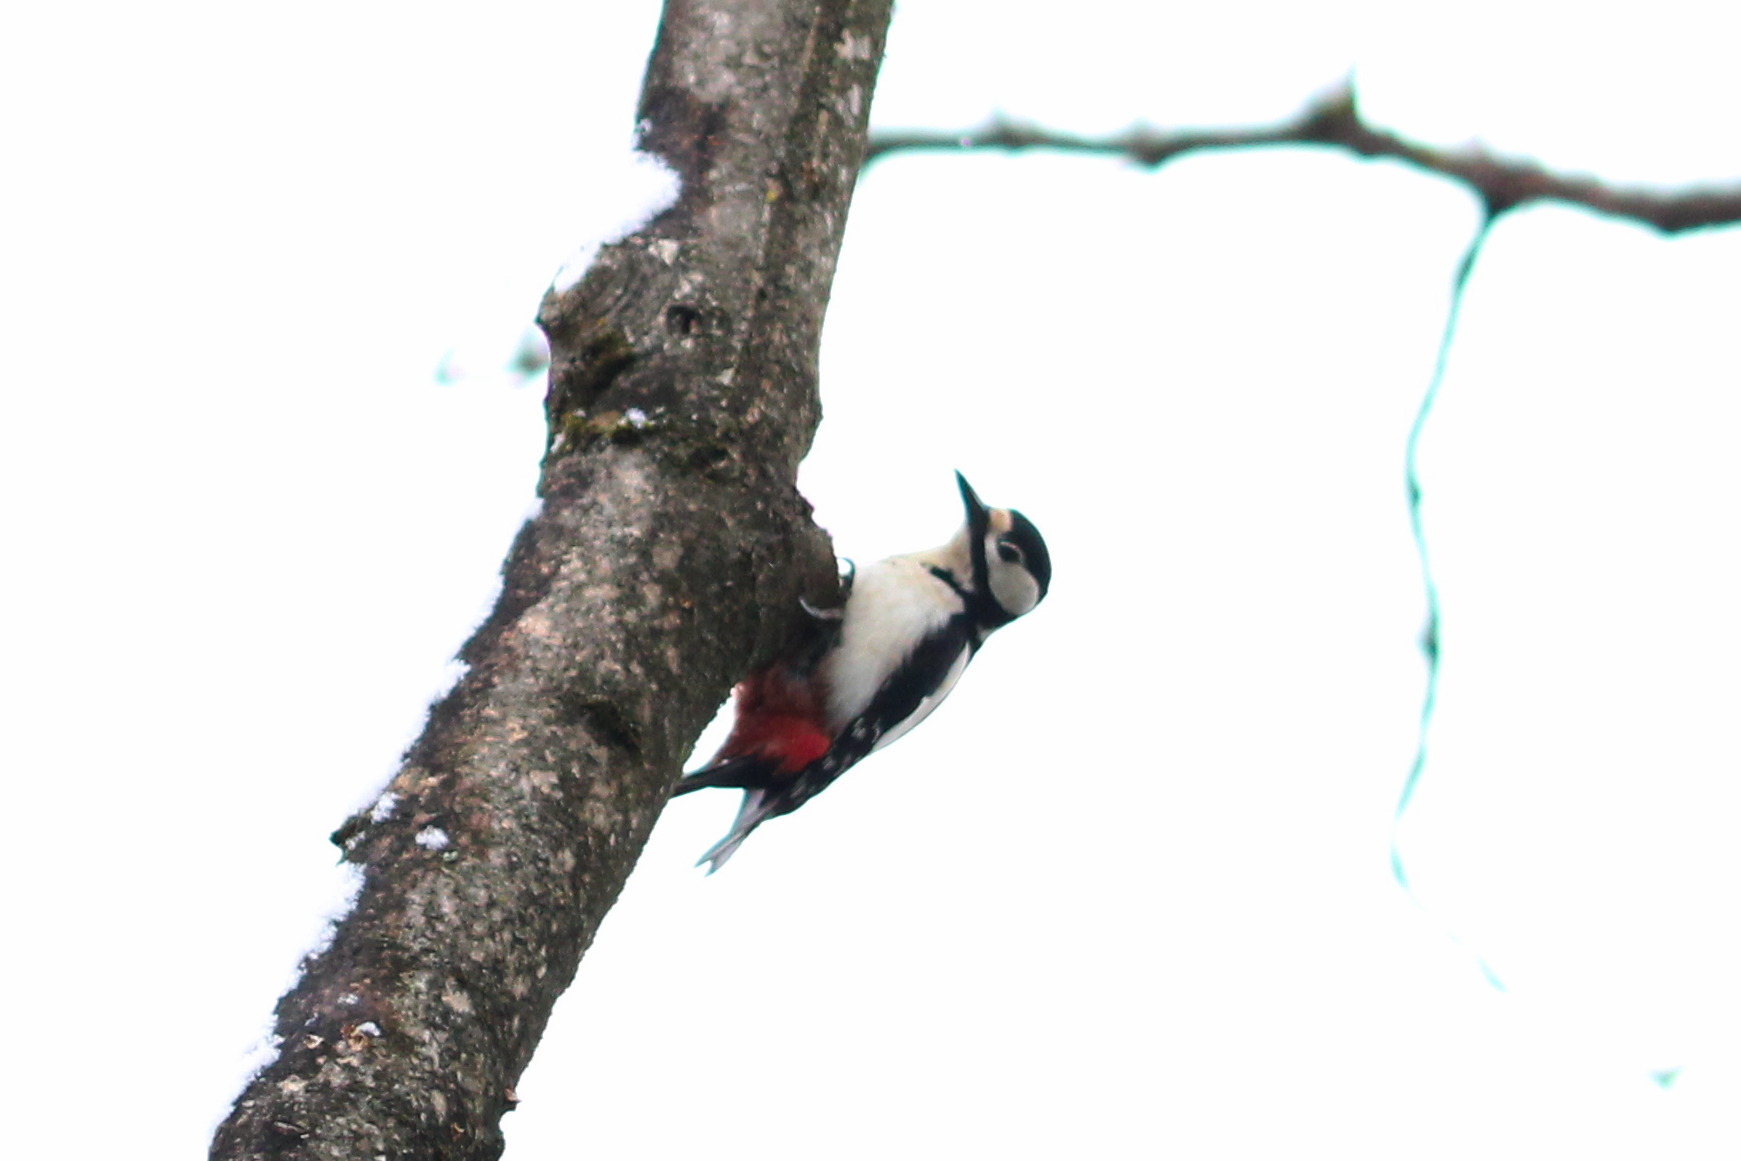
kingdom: Animalia
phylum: Chordata
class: Aves
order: Piciformes
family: Picidae
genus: Dendrocopos
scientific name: Dendrocopos major
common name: Great spotted woodpecker
